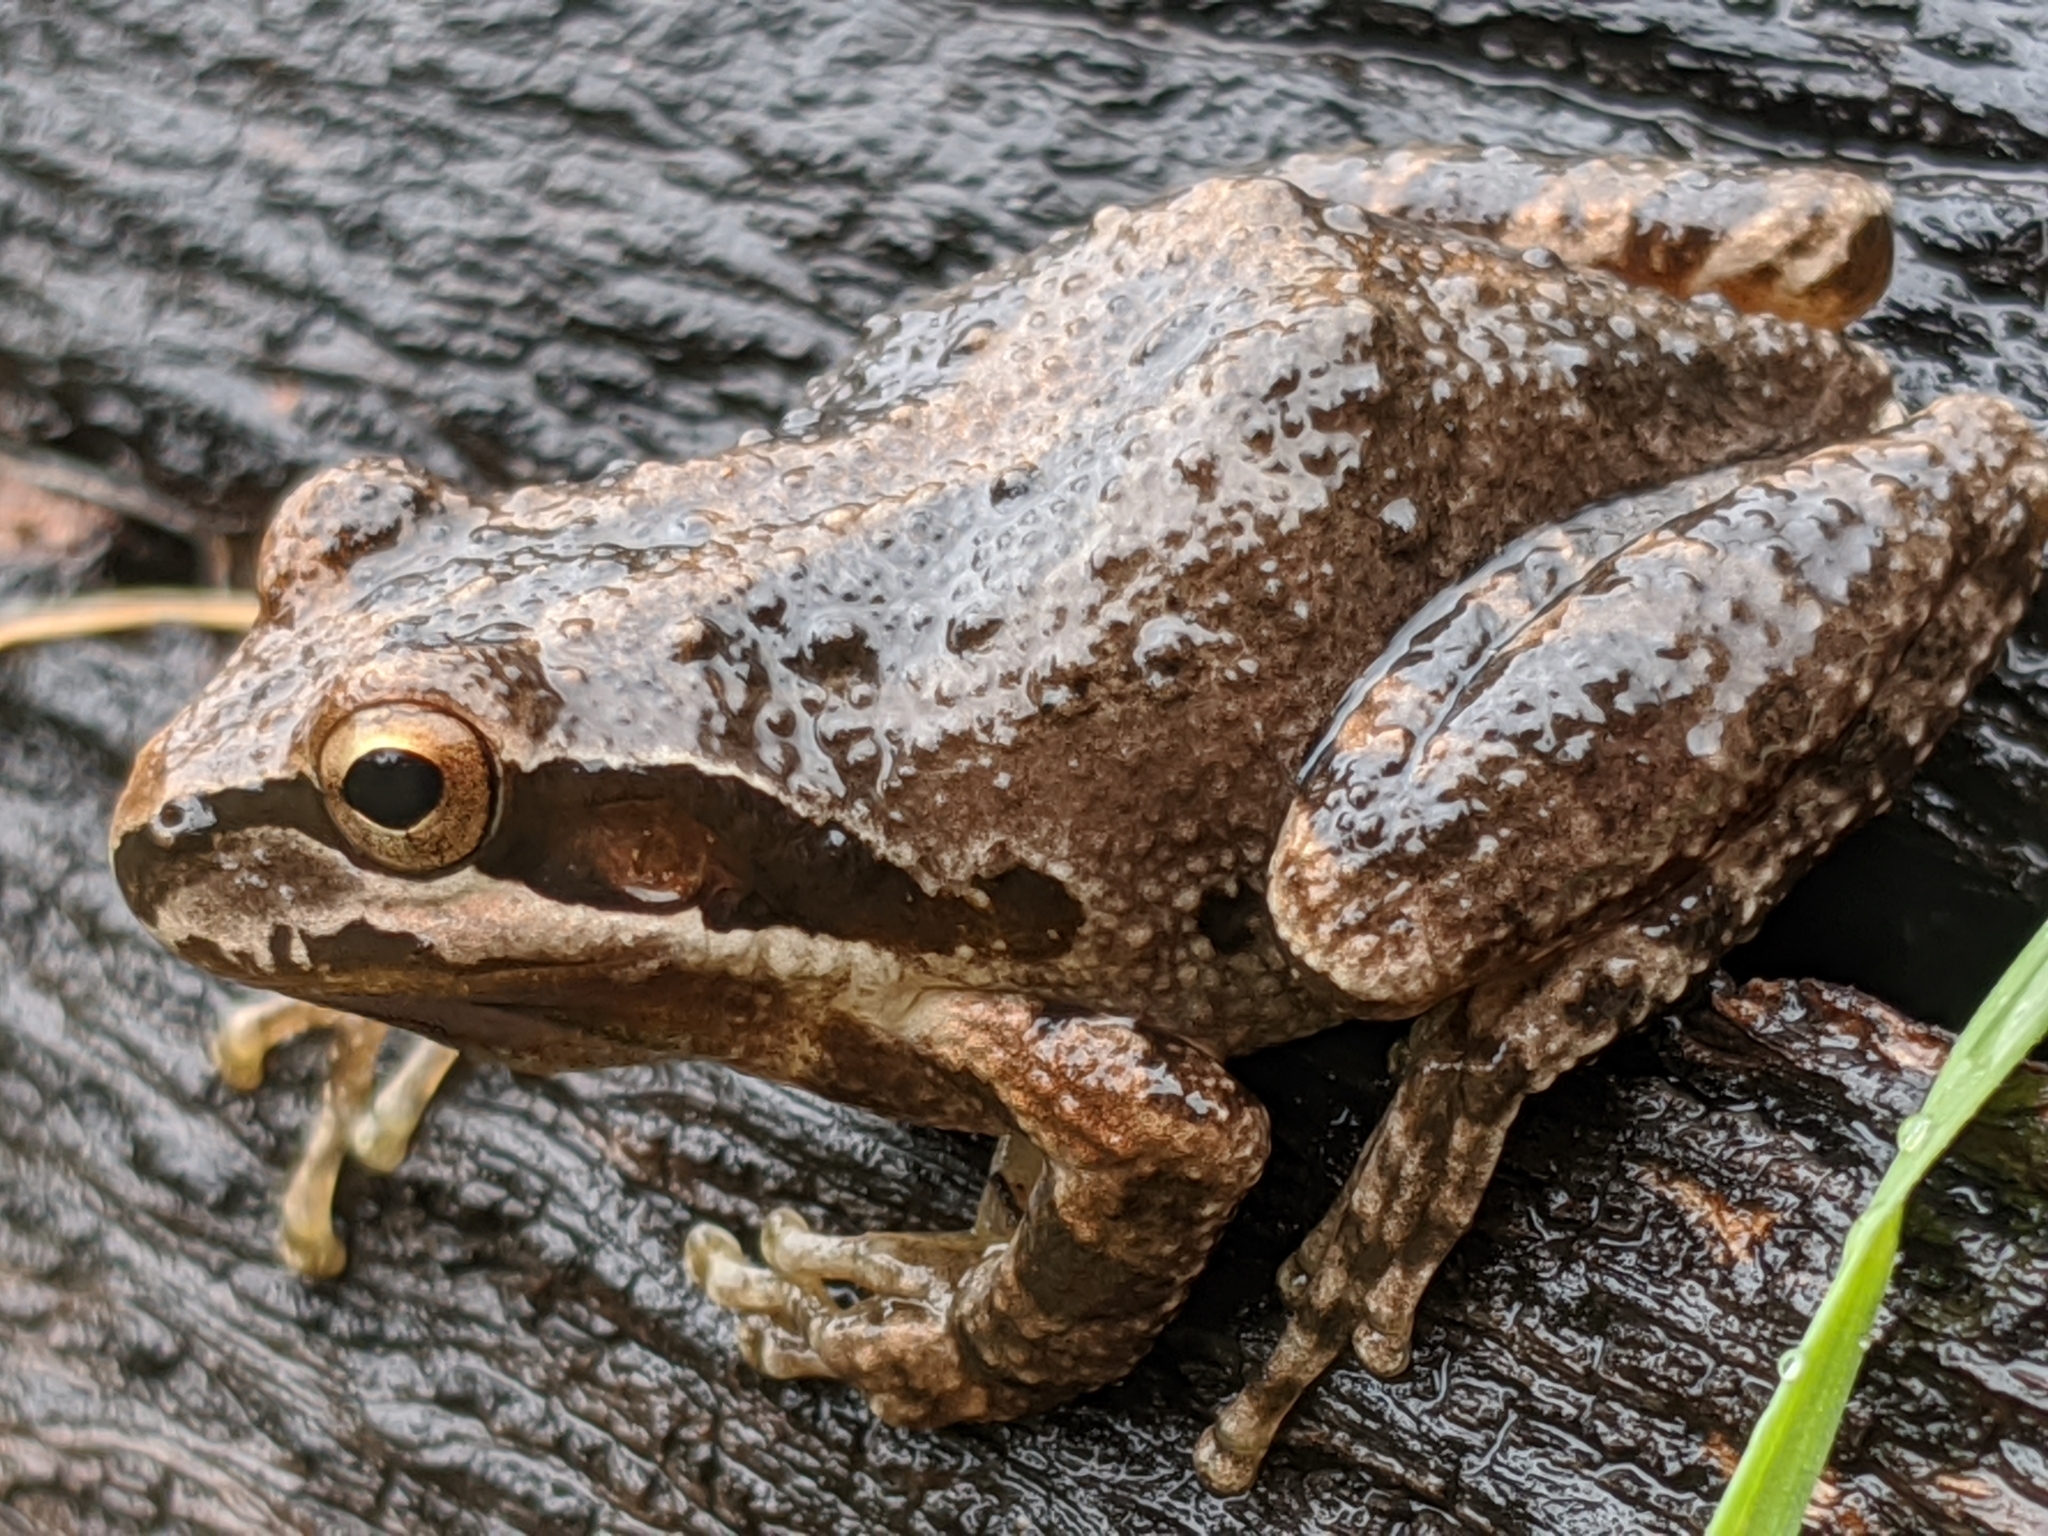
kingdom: Animalia
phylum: Chordata
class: Amphibia
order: Anura
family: Hylidae
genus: Pseudacris
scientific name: Pseudacris regilla
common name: Pacific chorus frog
